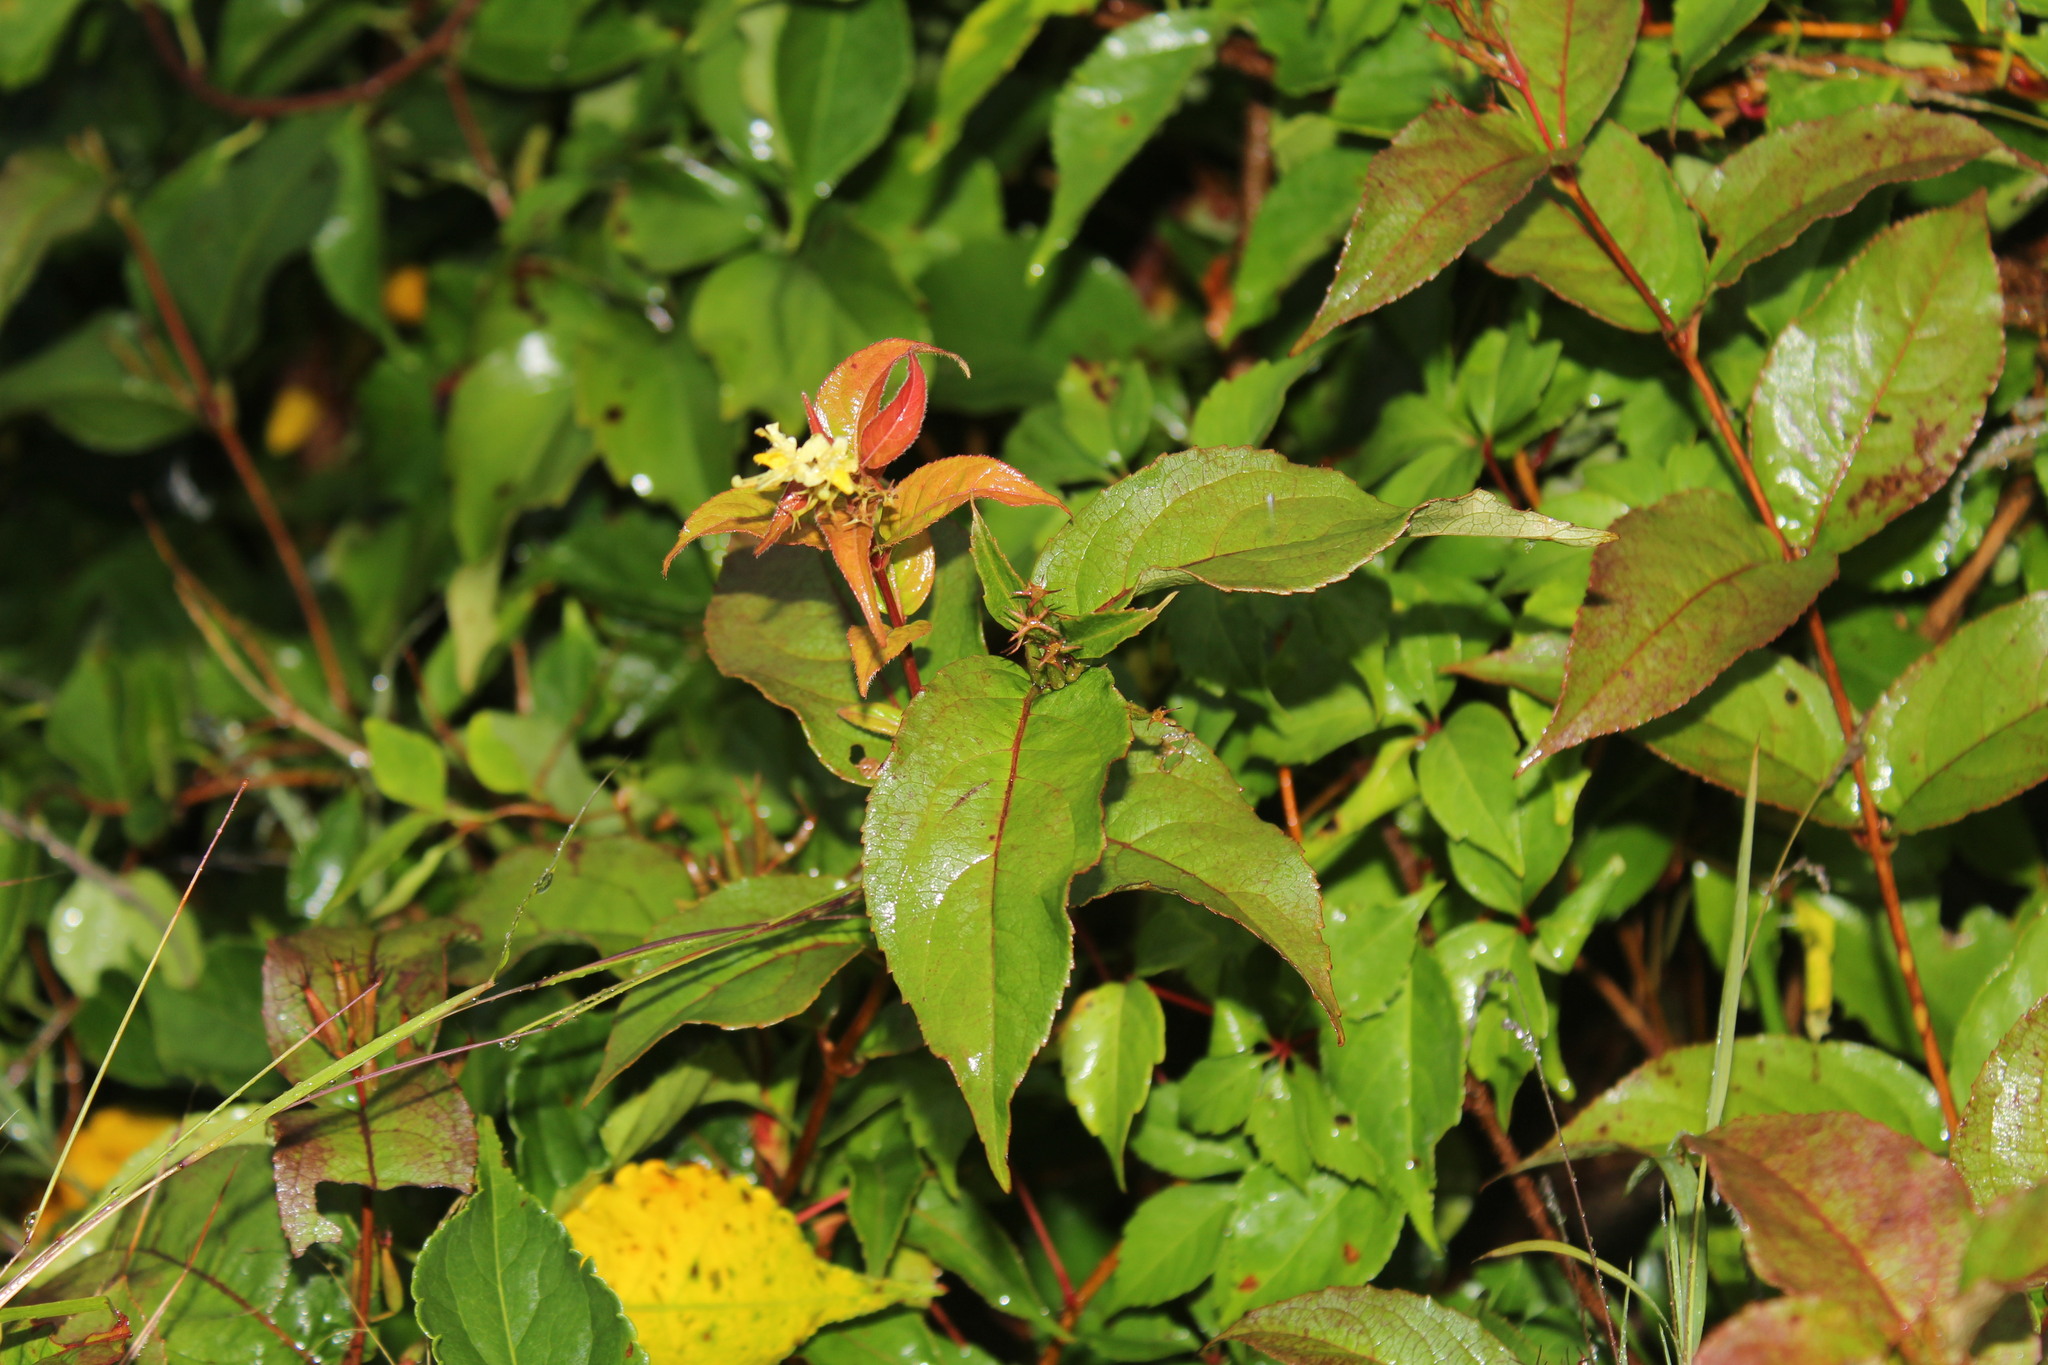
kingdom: Plantae
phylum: Tracheophyta
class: Magnoliopsida
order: Dipsacales
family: Caprifoliaceae
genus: Diervilla
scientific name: Diervilla lonicera
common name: Bush-honeysuckle
